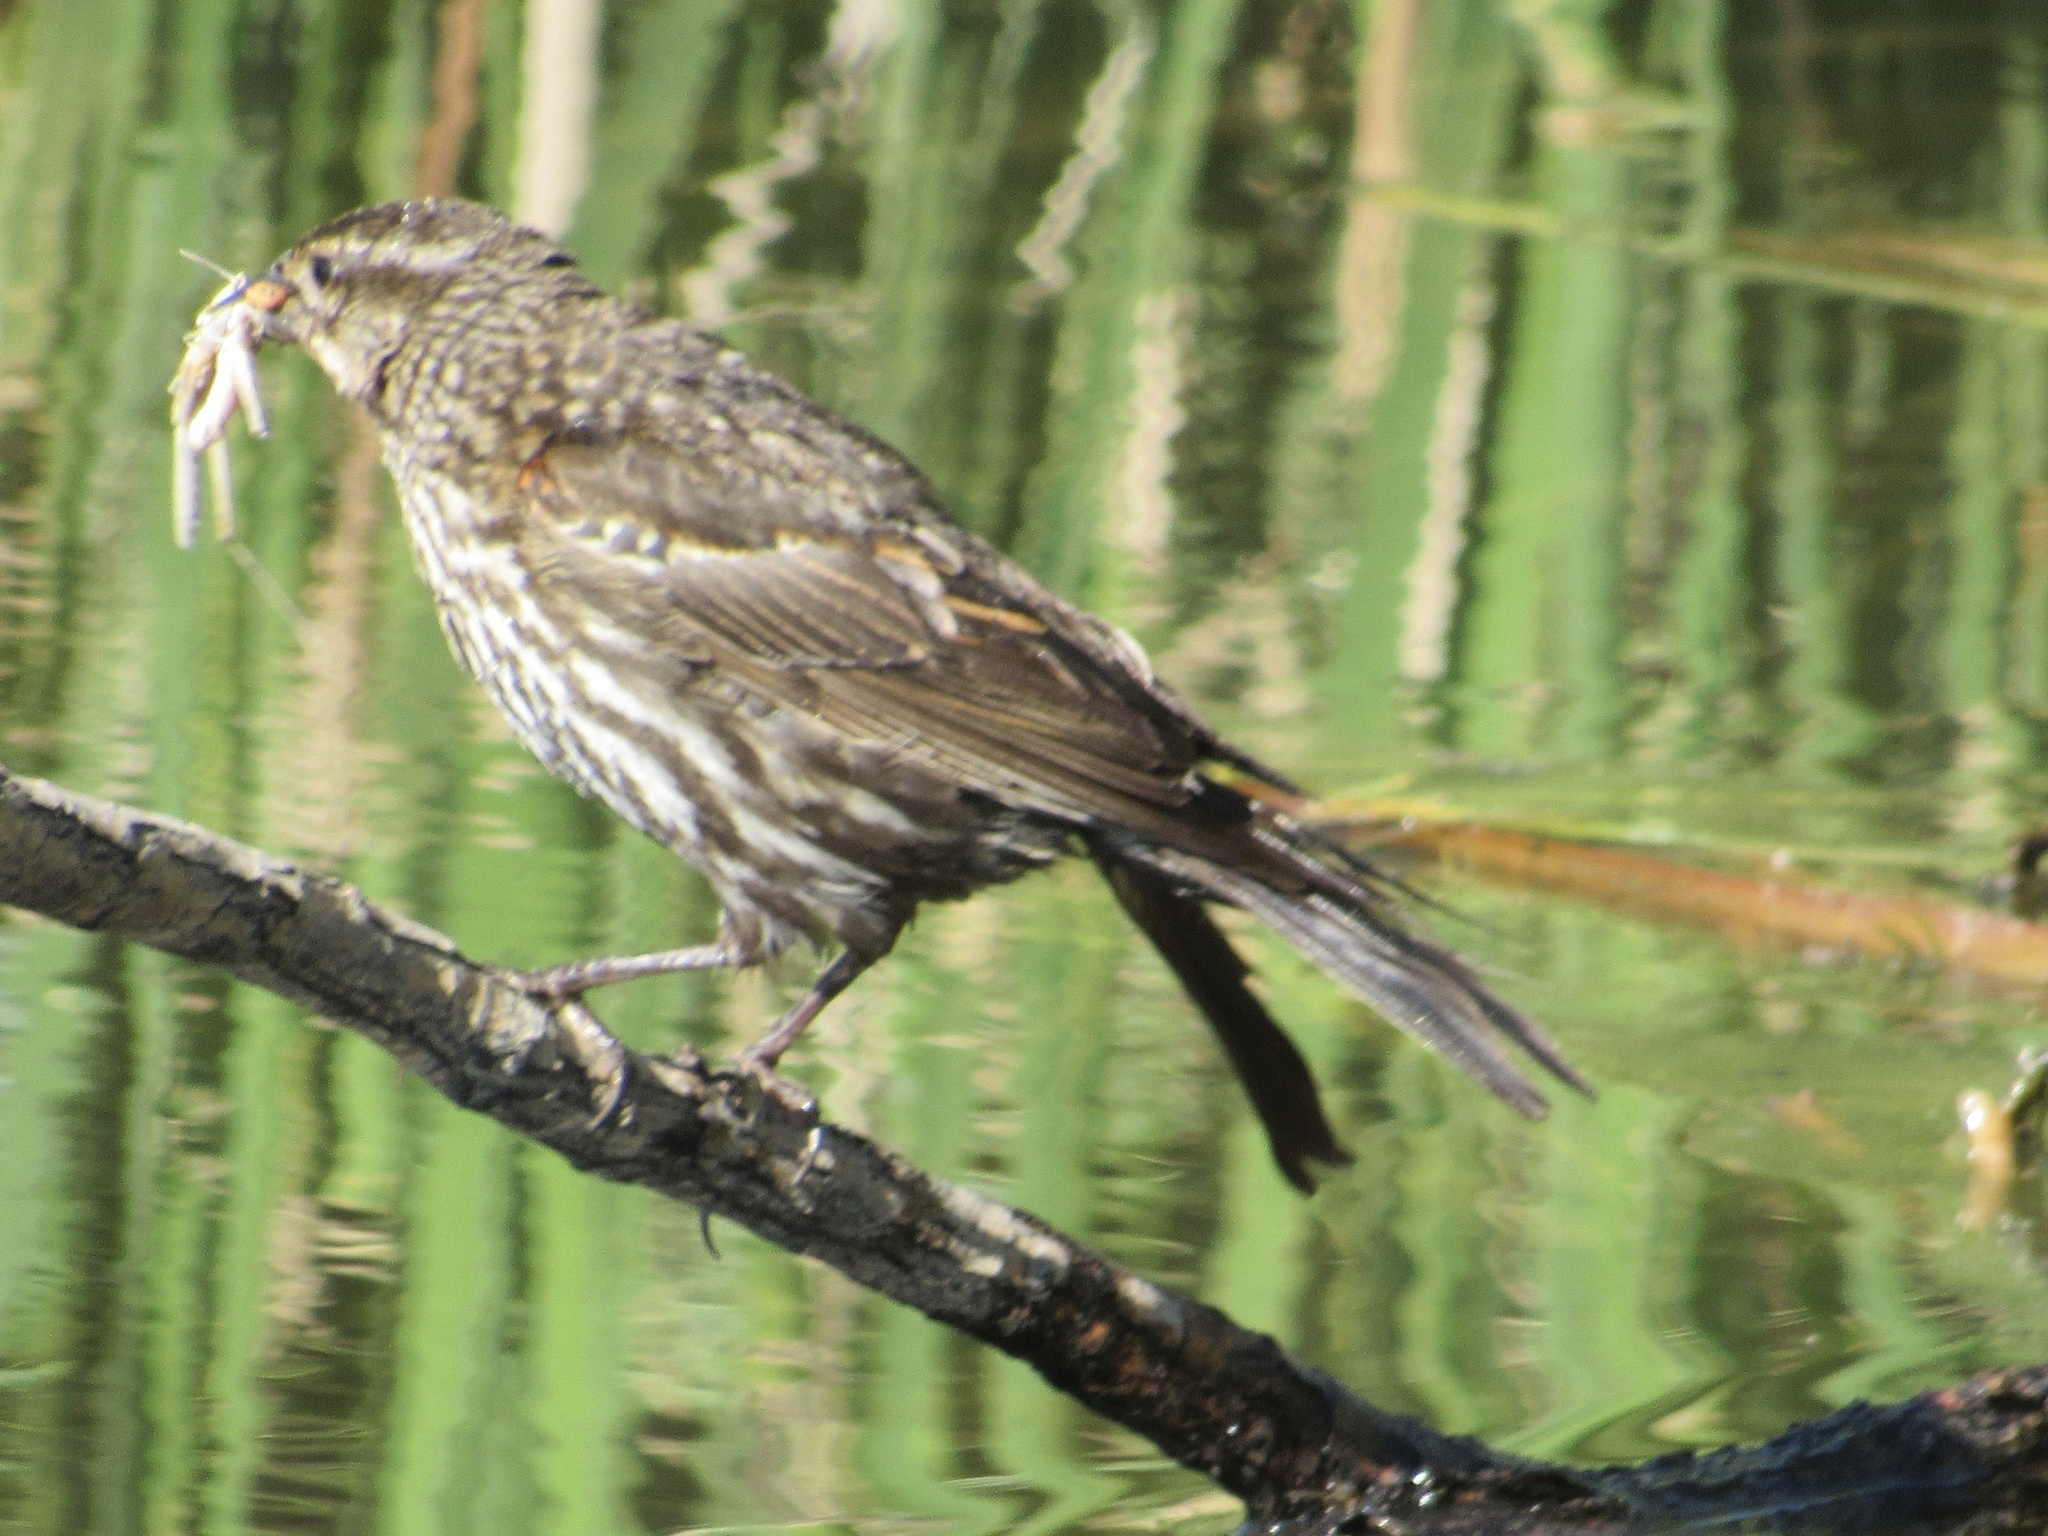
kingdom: Animalia
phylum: Chordata
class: Aves
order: Passeriformes
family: Icteridae
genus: Agelaius
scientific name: Agelaius phoeniceus
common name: Red-winged blackbird
